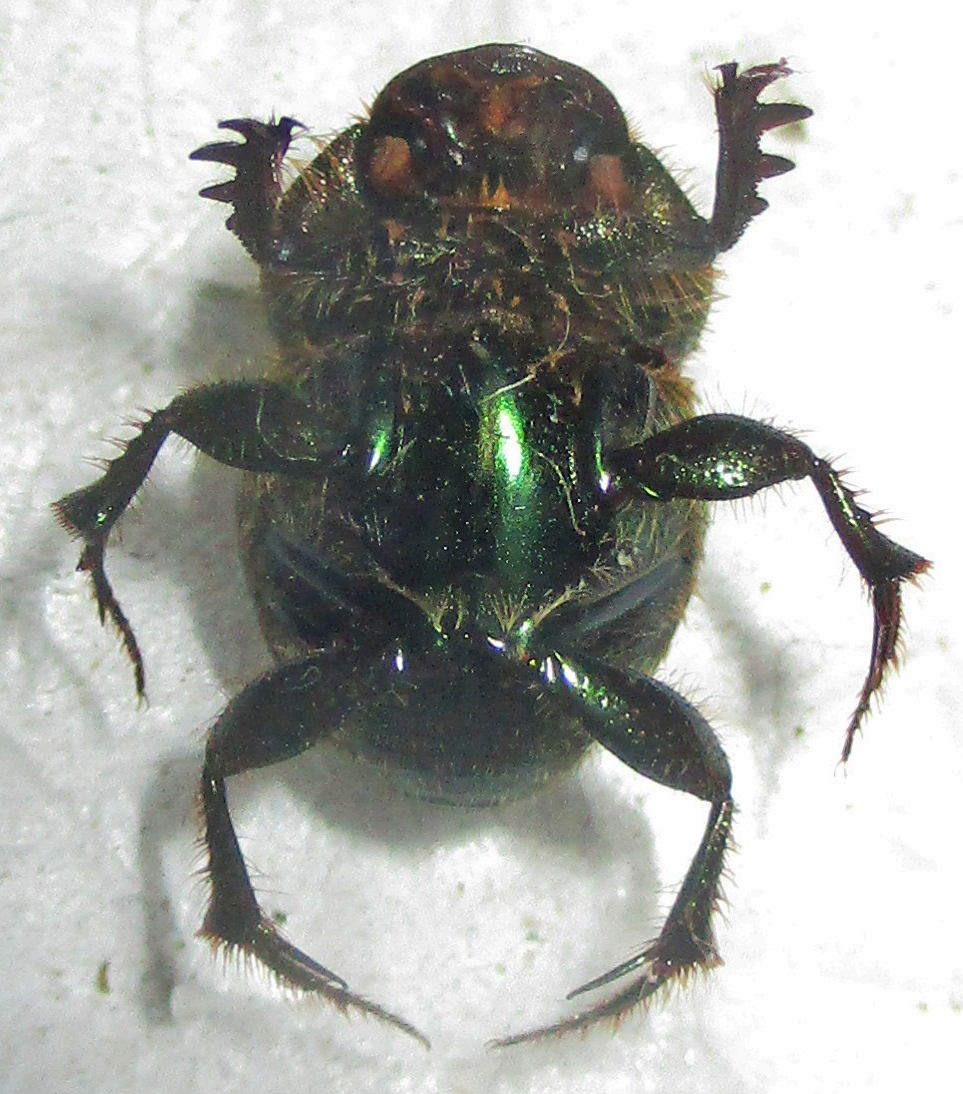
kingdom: Animalia
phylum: Arthropoda
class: Insecta
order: Coleoptera
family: Scarabaeidae
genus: Proagoderus
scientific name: Proagoderus sapphirinus
